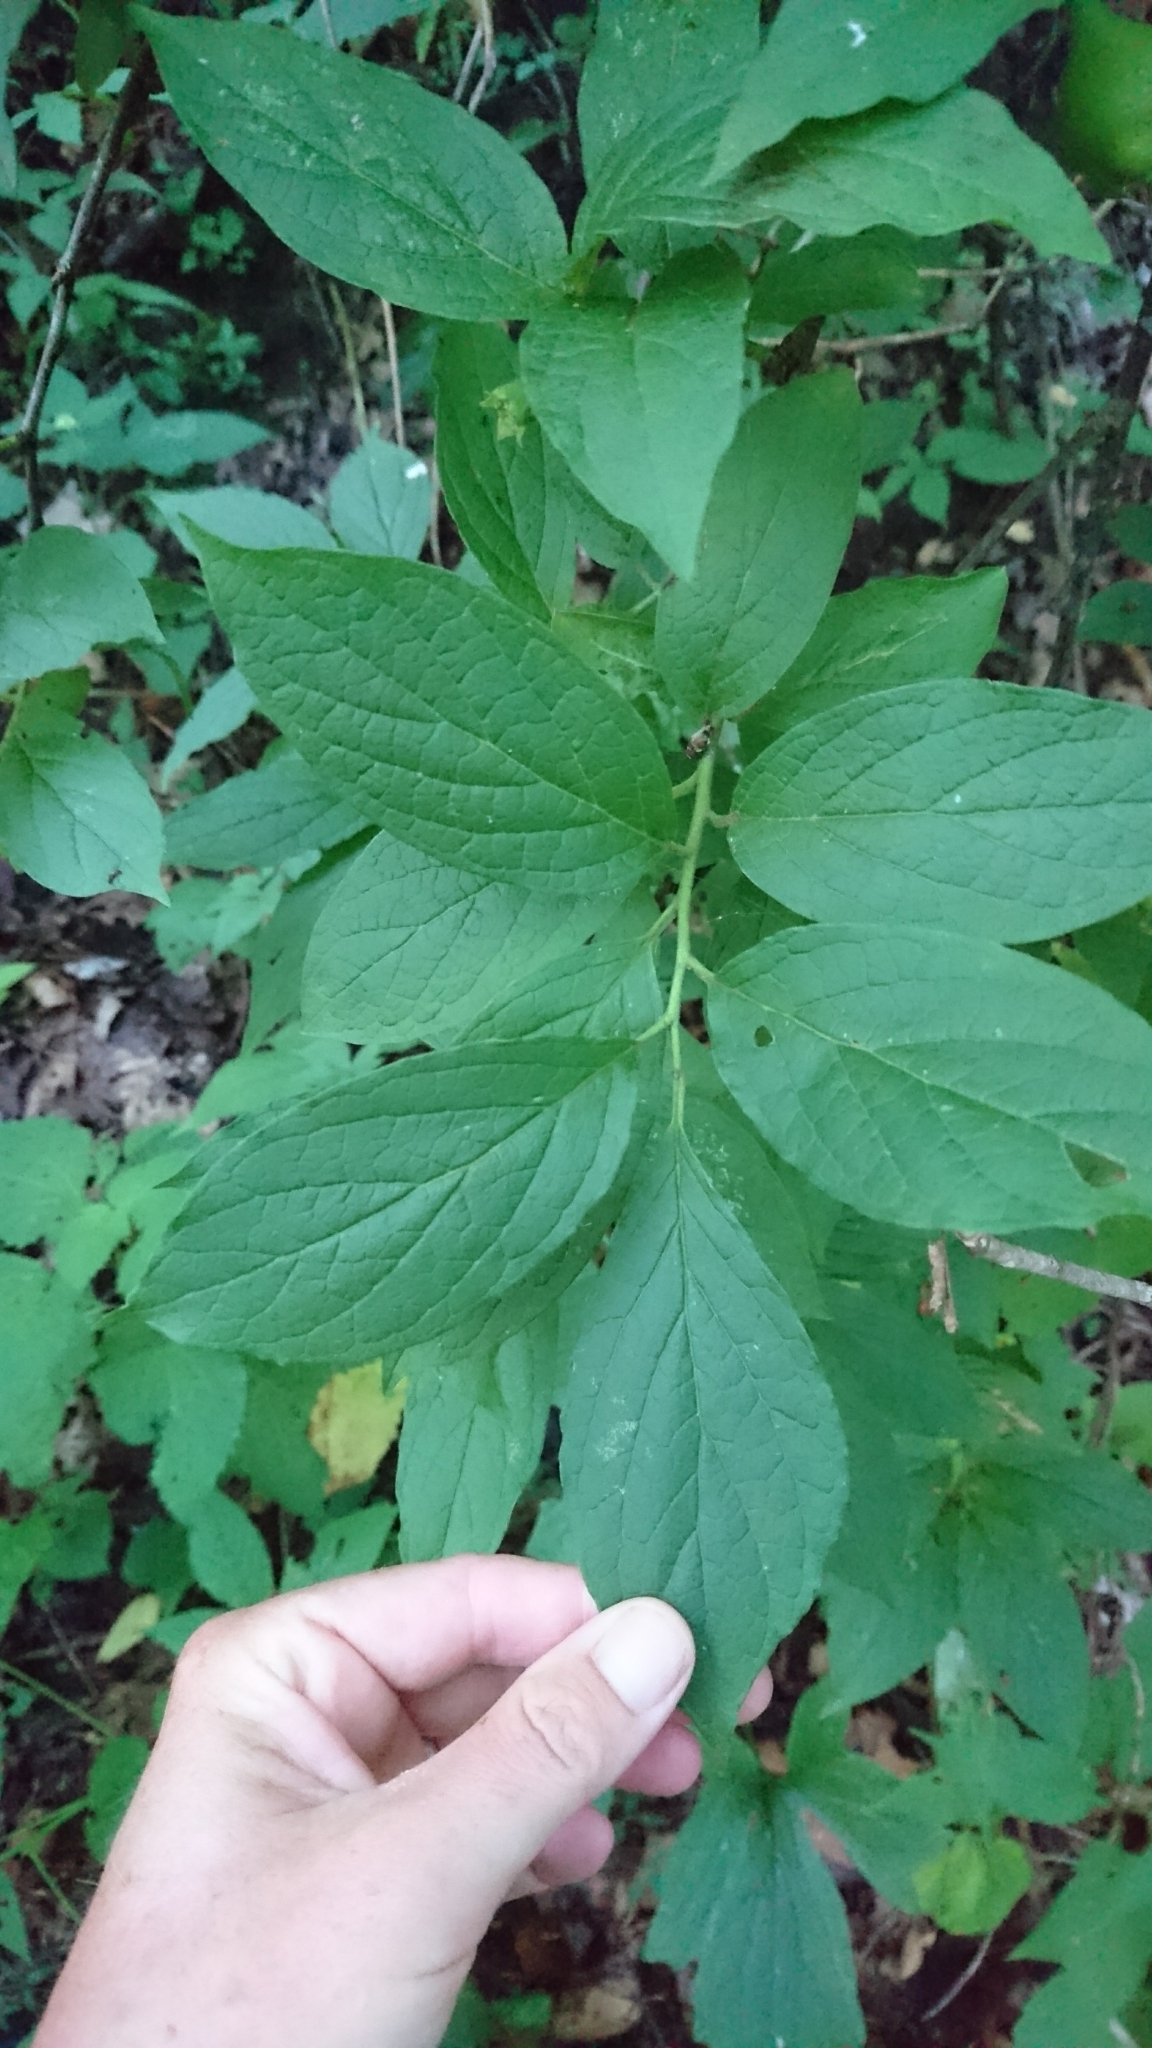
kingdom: Plantae
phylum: Tracheophyta
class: Magnoliopsida
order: Santalales
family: Cervantesiaceae
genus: Pyrularia
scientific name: Pyrularia pubera
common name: Oilnut
